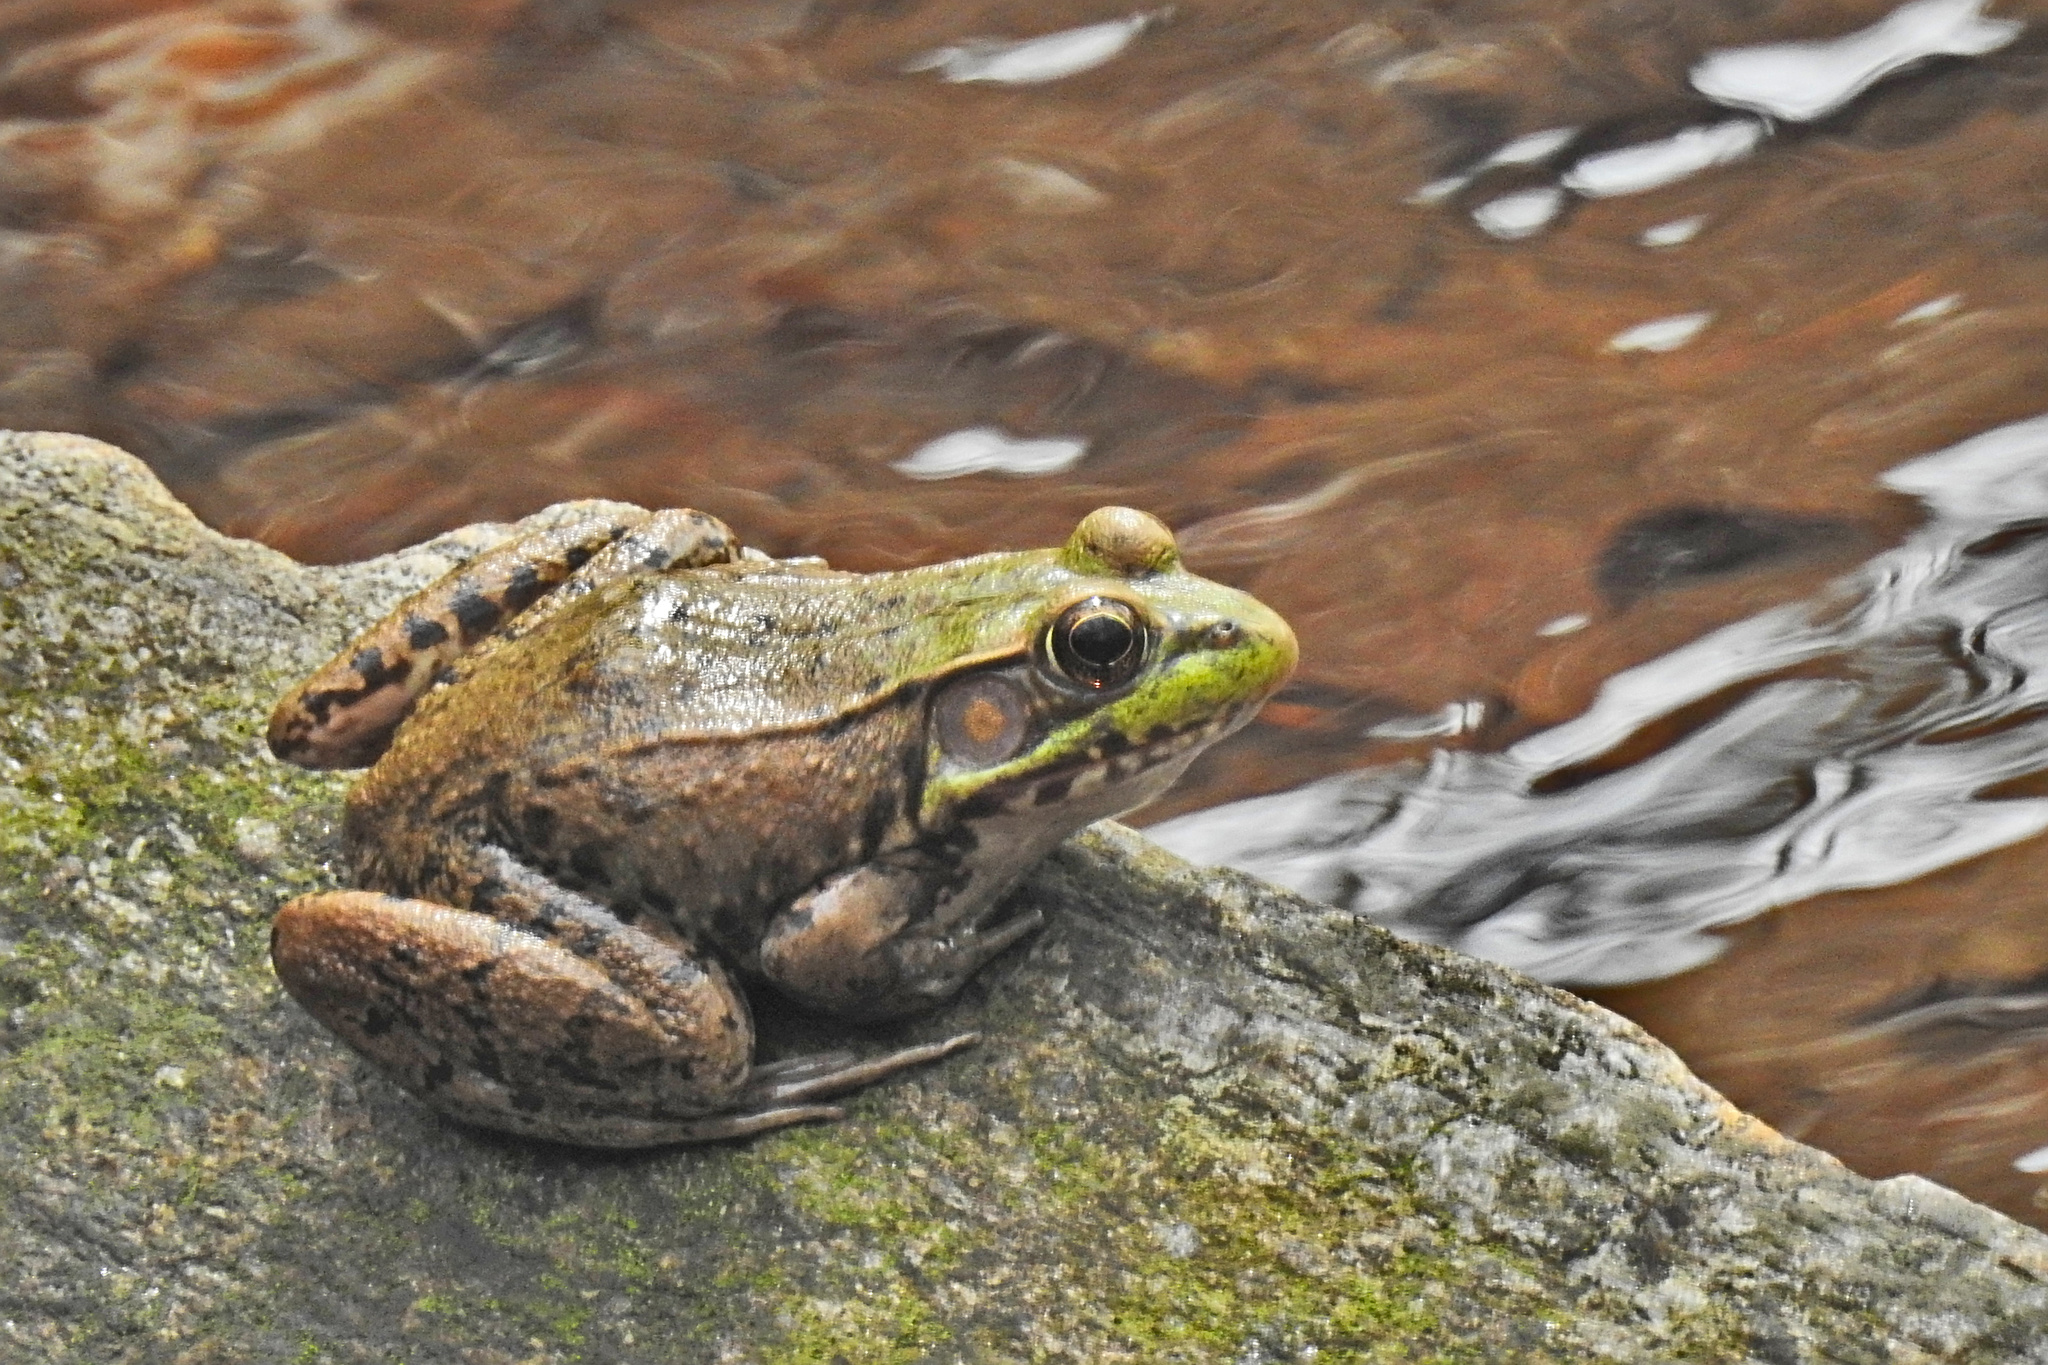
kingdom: Animalia
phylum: Chordata
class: Amphibia
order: Anura
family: Ranidae
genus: Lithobates
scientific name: Lithobates clamitans
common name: Green frog
